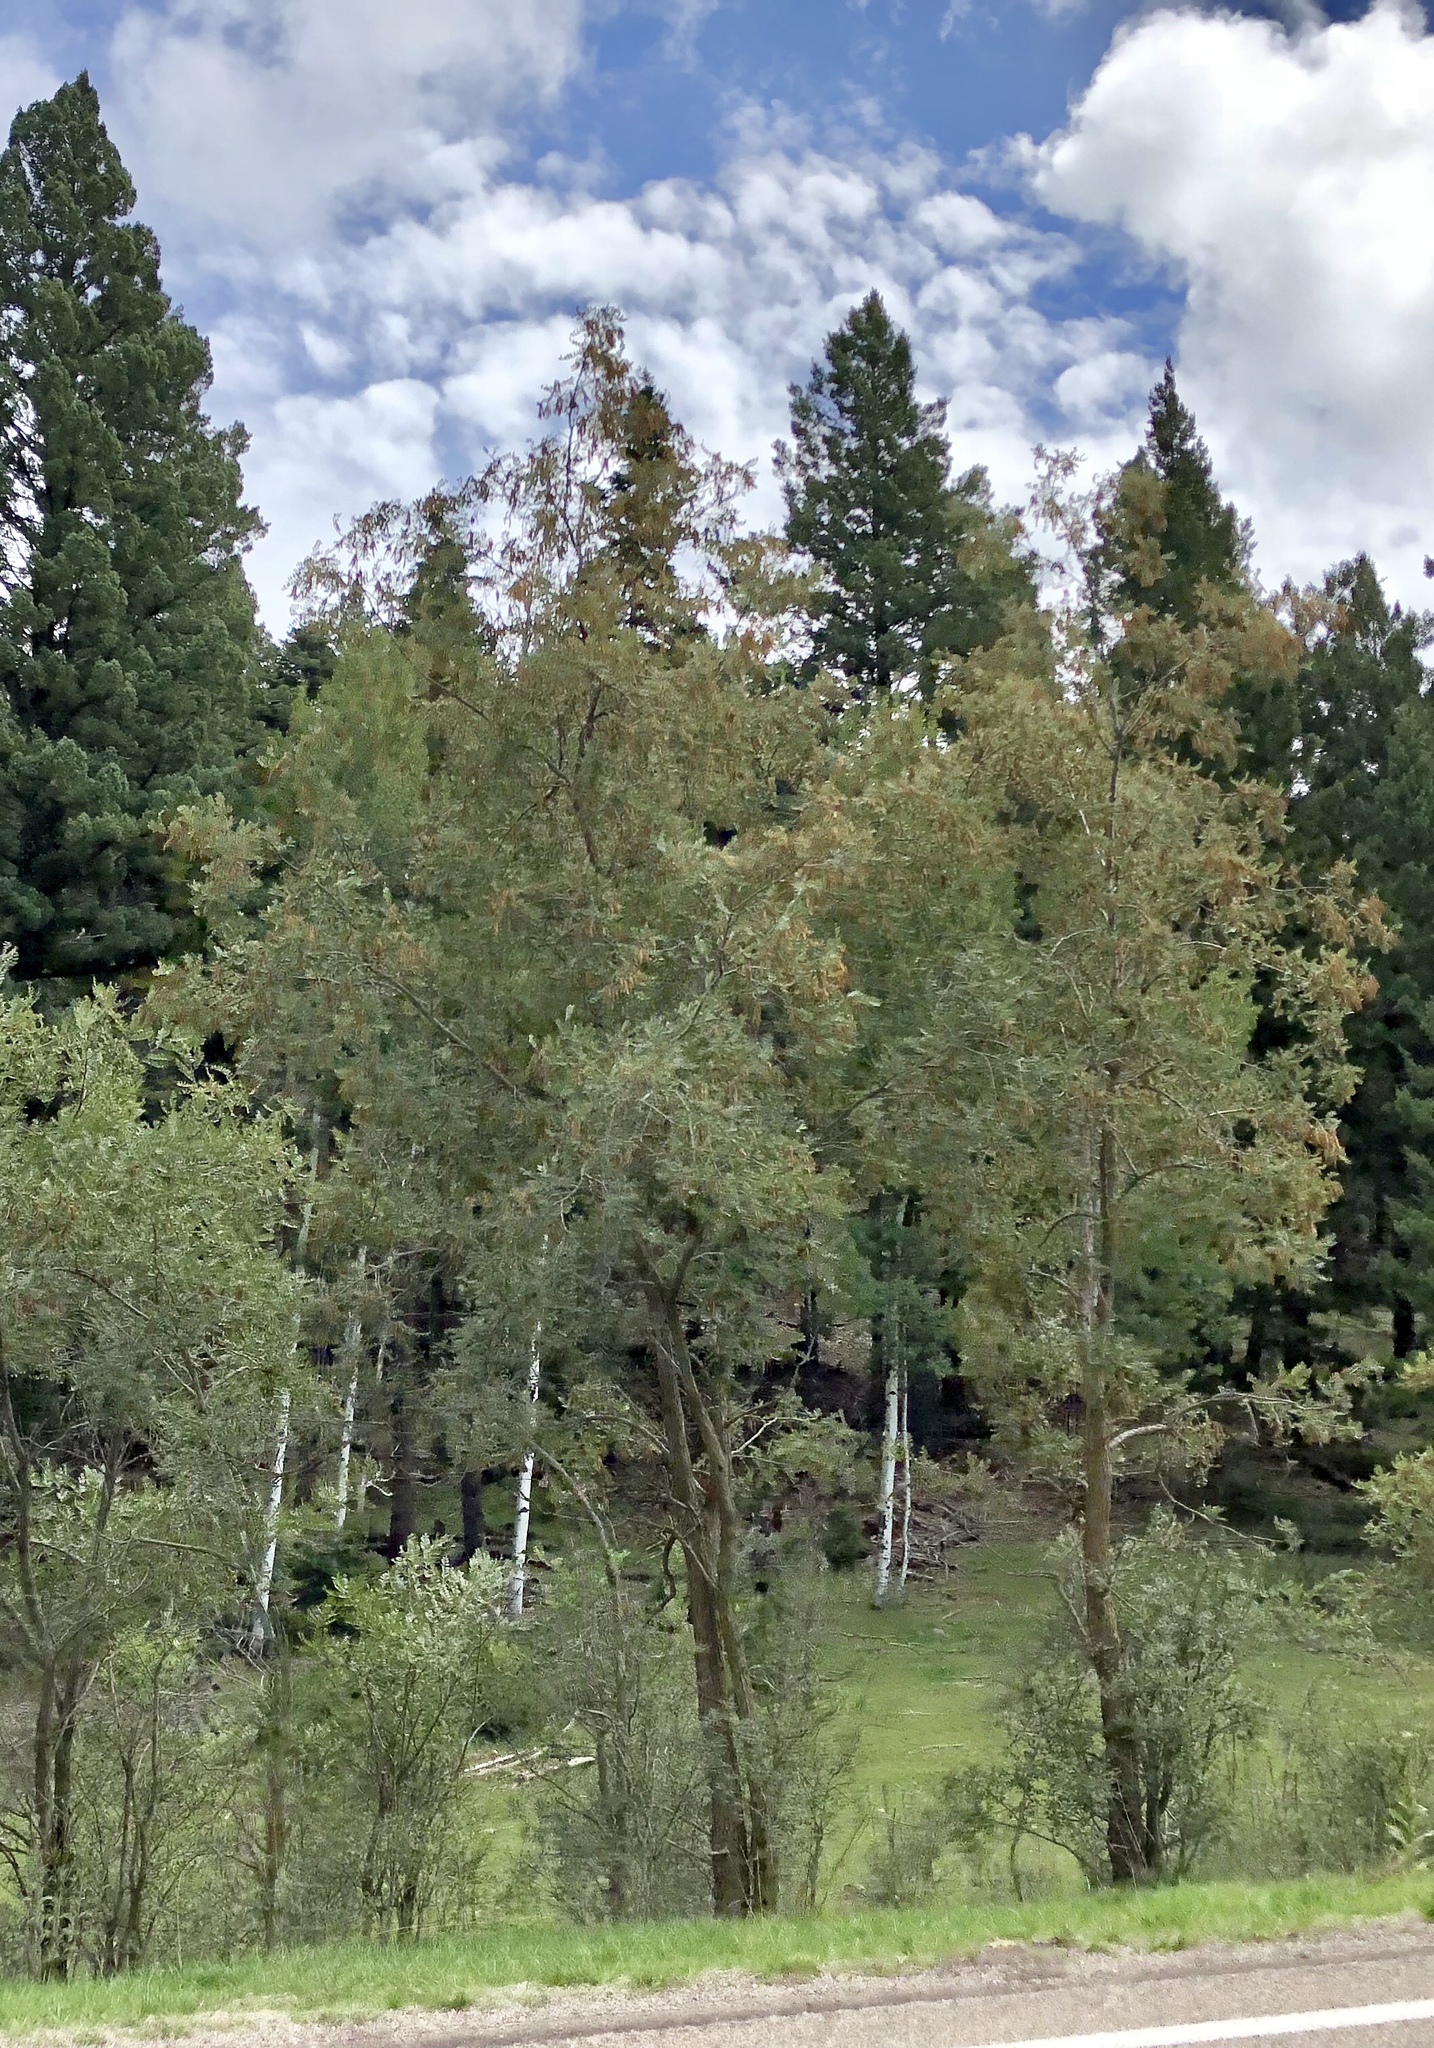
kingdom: Plantae
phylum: Tracheophyta
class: Magnoliopsida
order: Malpighiales
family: Salicaceae
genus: Populus
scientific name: Populus tremuloides
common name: Quaking aspen
